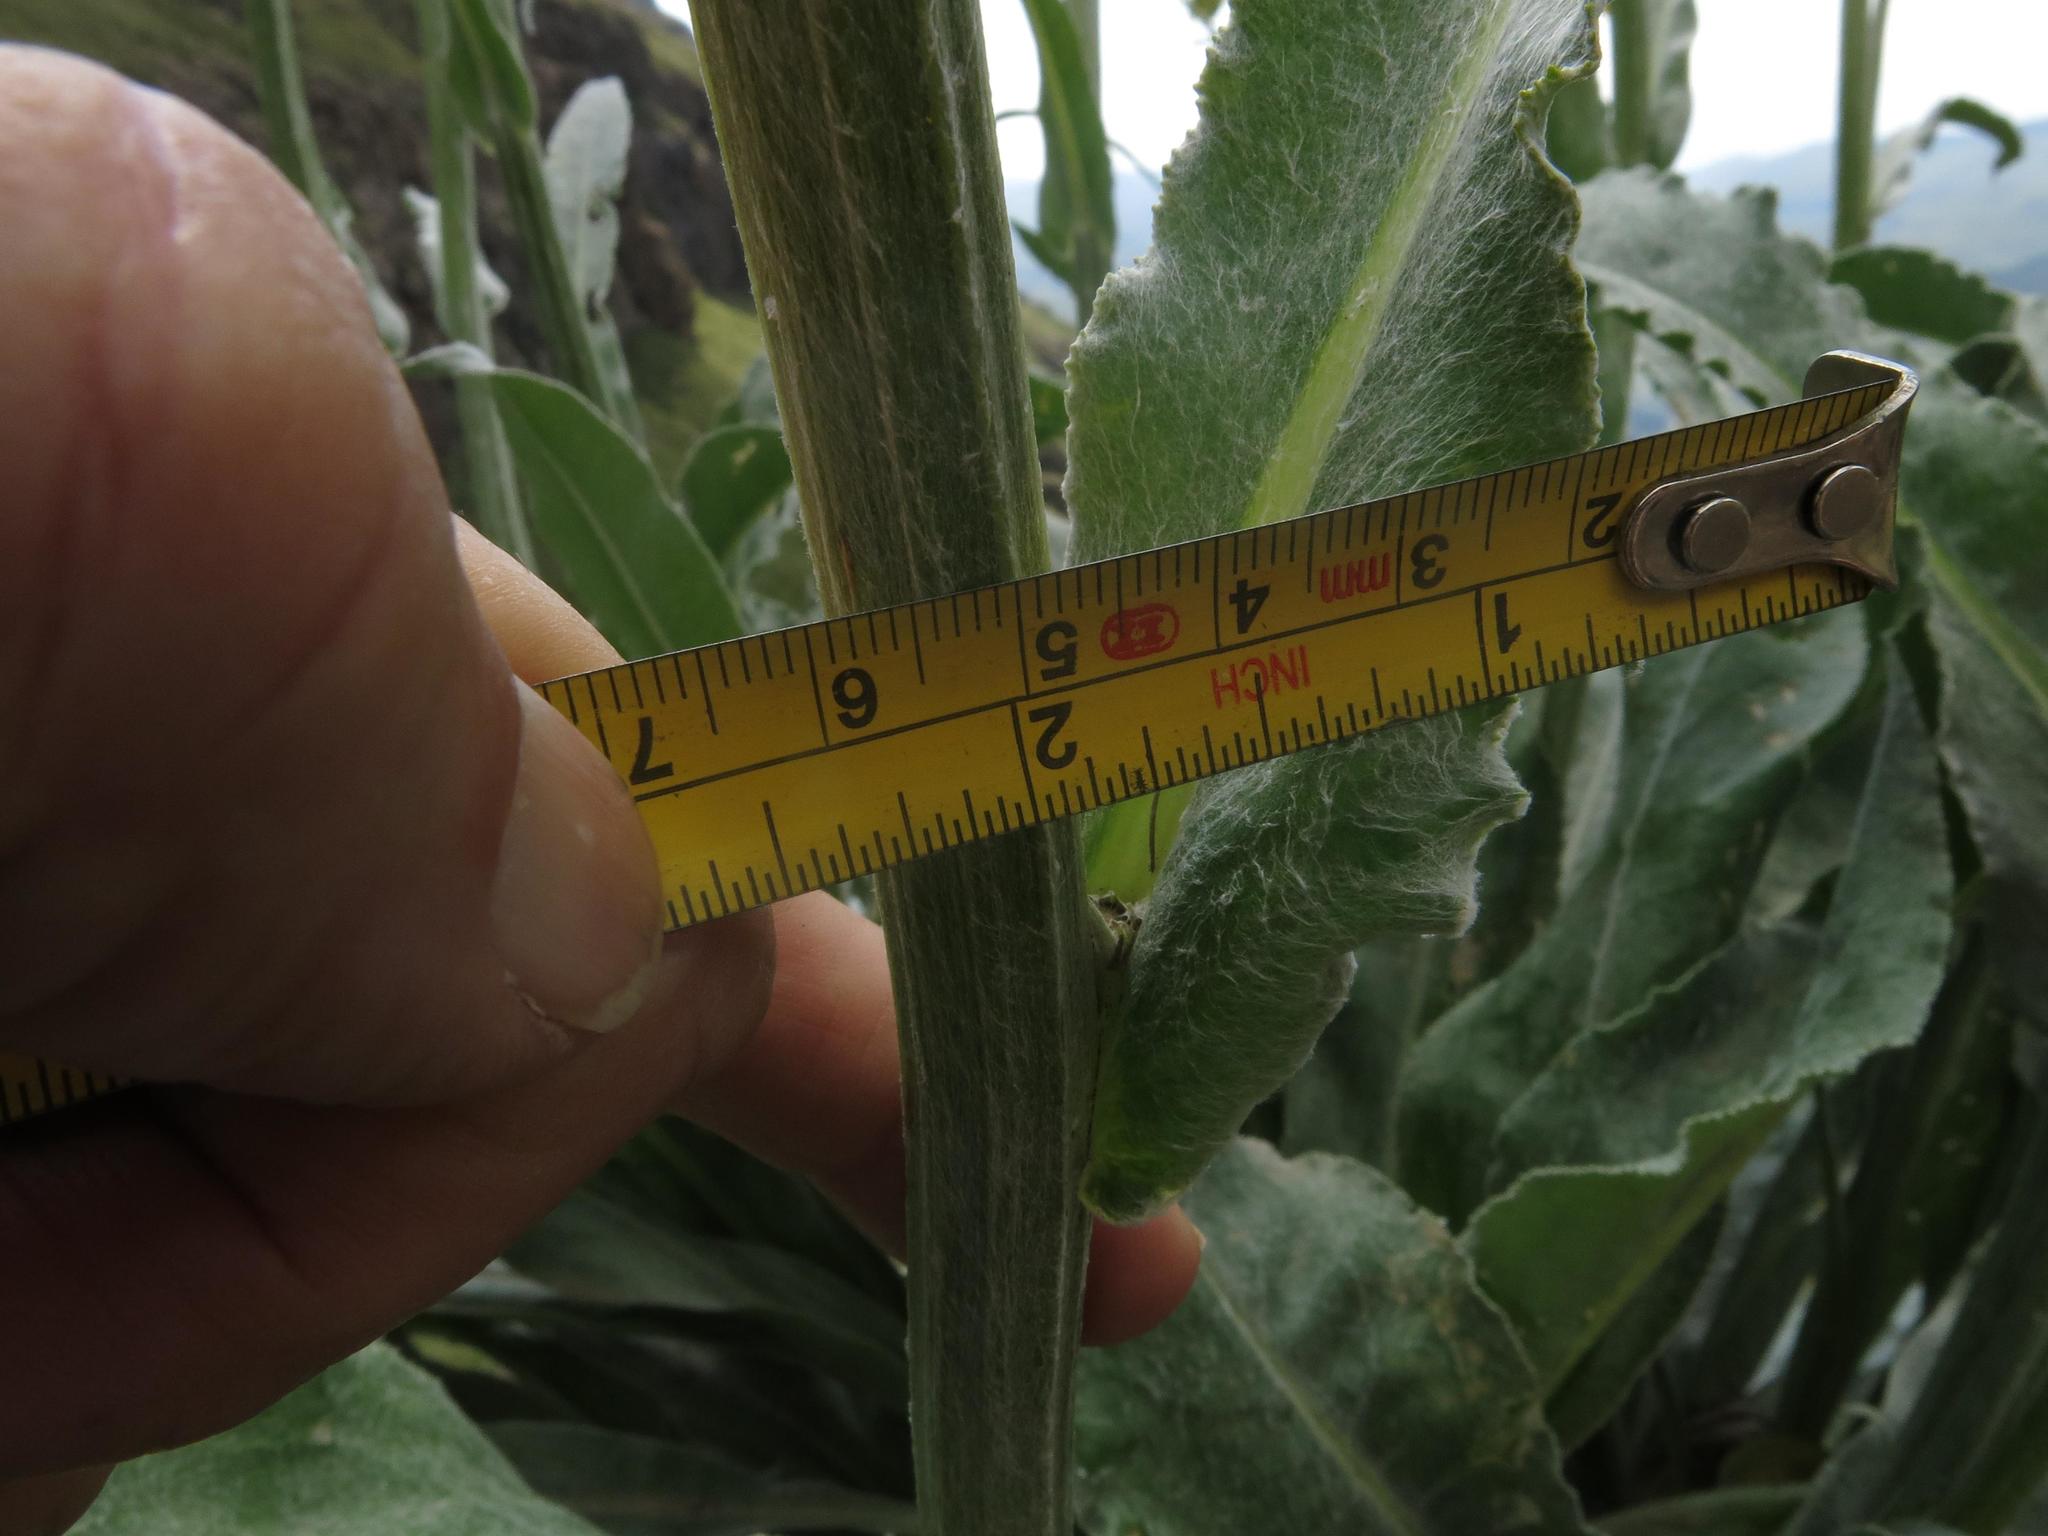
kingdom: Plantae
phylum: Tracheophyta
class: Magnoliopsida
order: Asterales
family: Asteraceae
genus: Senecio
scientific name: Senecio macrospermus
